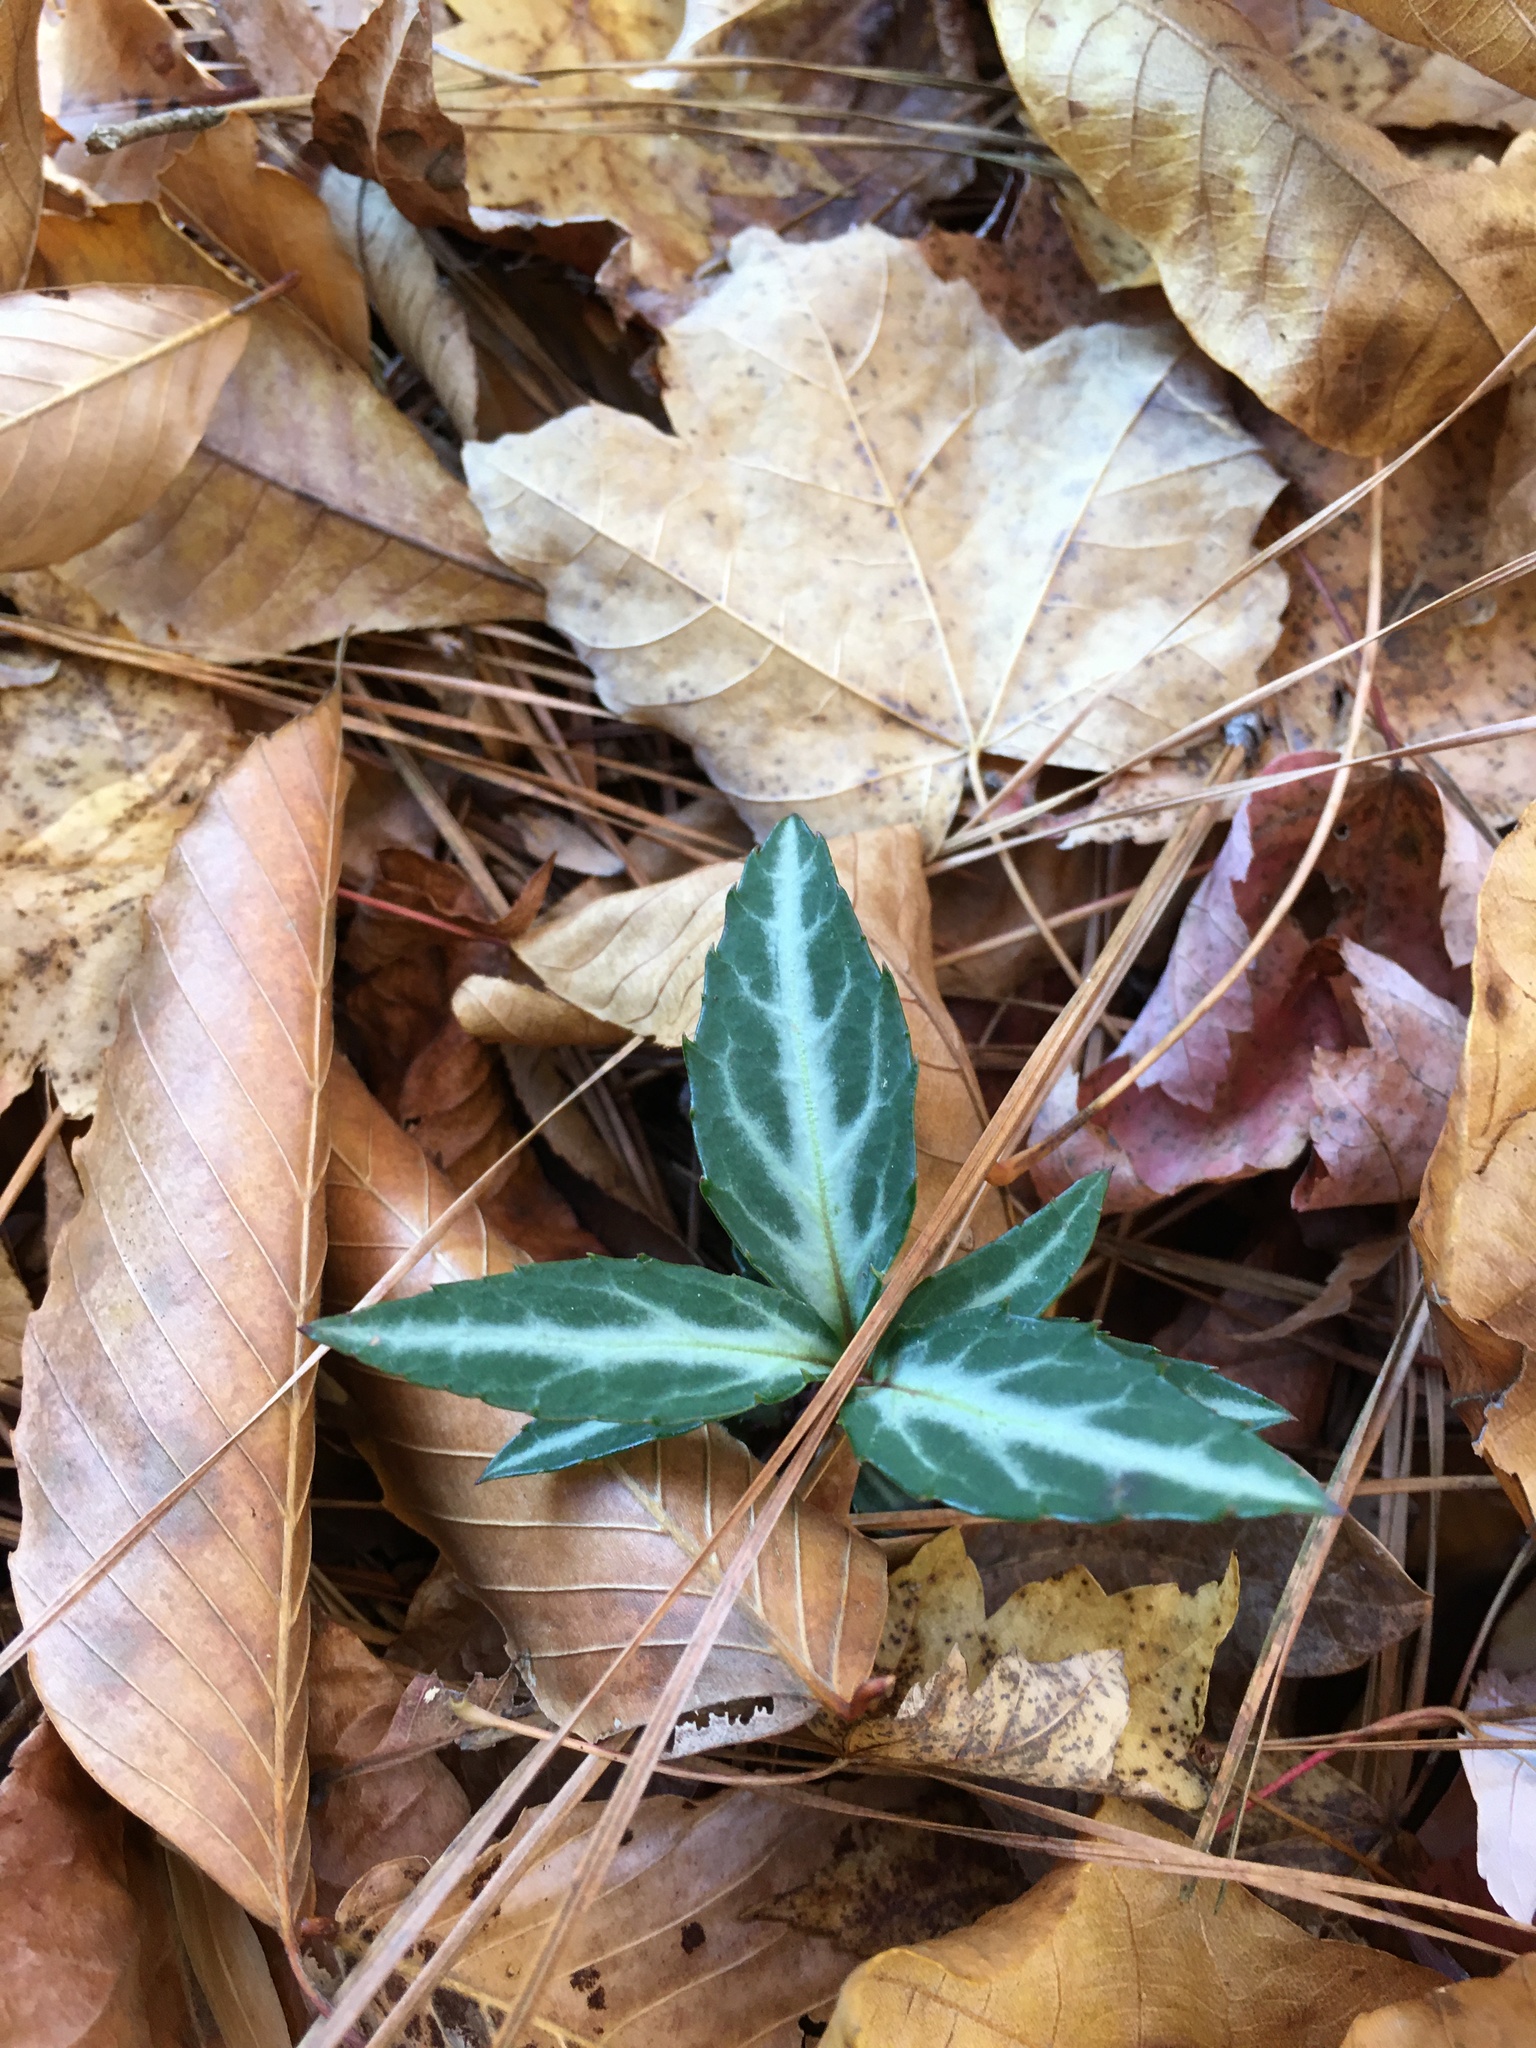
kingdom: Plantae
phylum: Tracheophyta
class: Magnoliopsida
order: Ericales
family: Ericaceae
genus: Chimaphila
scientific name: Chimaphila maculata
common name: Spotted pipsissewa
